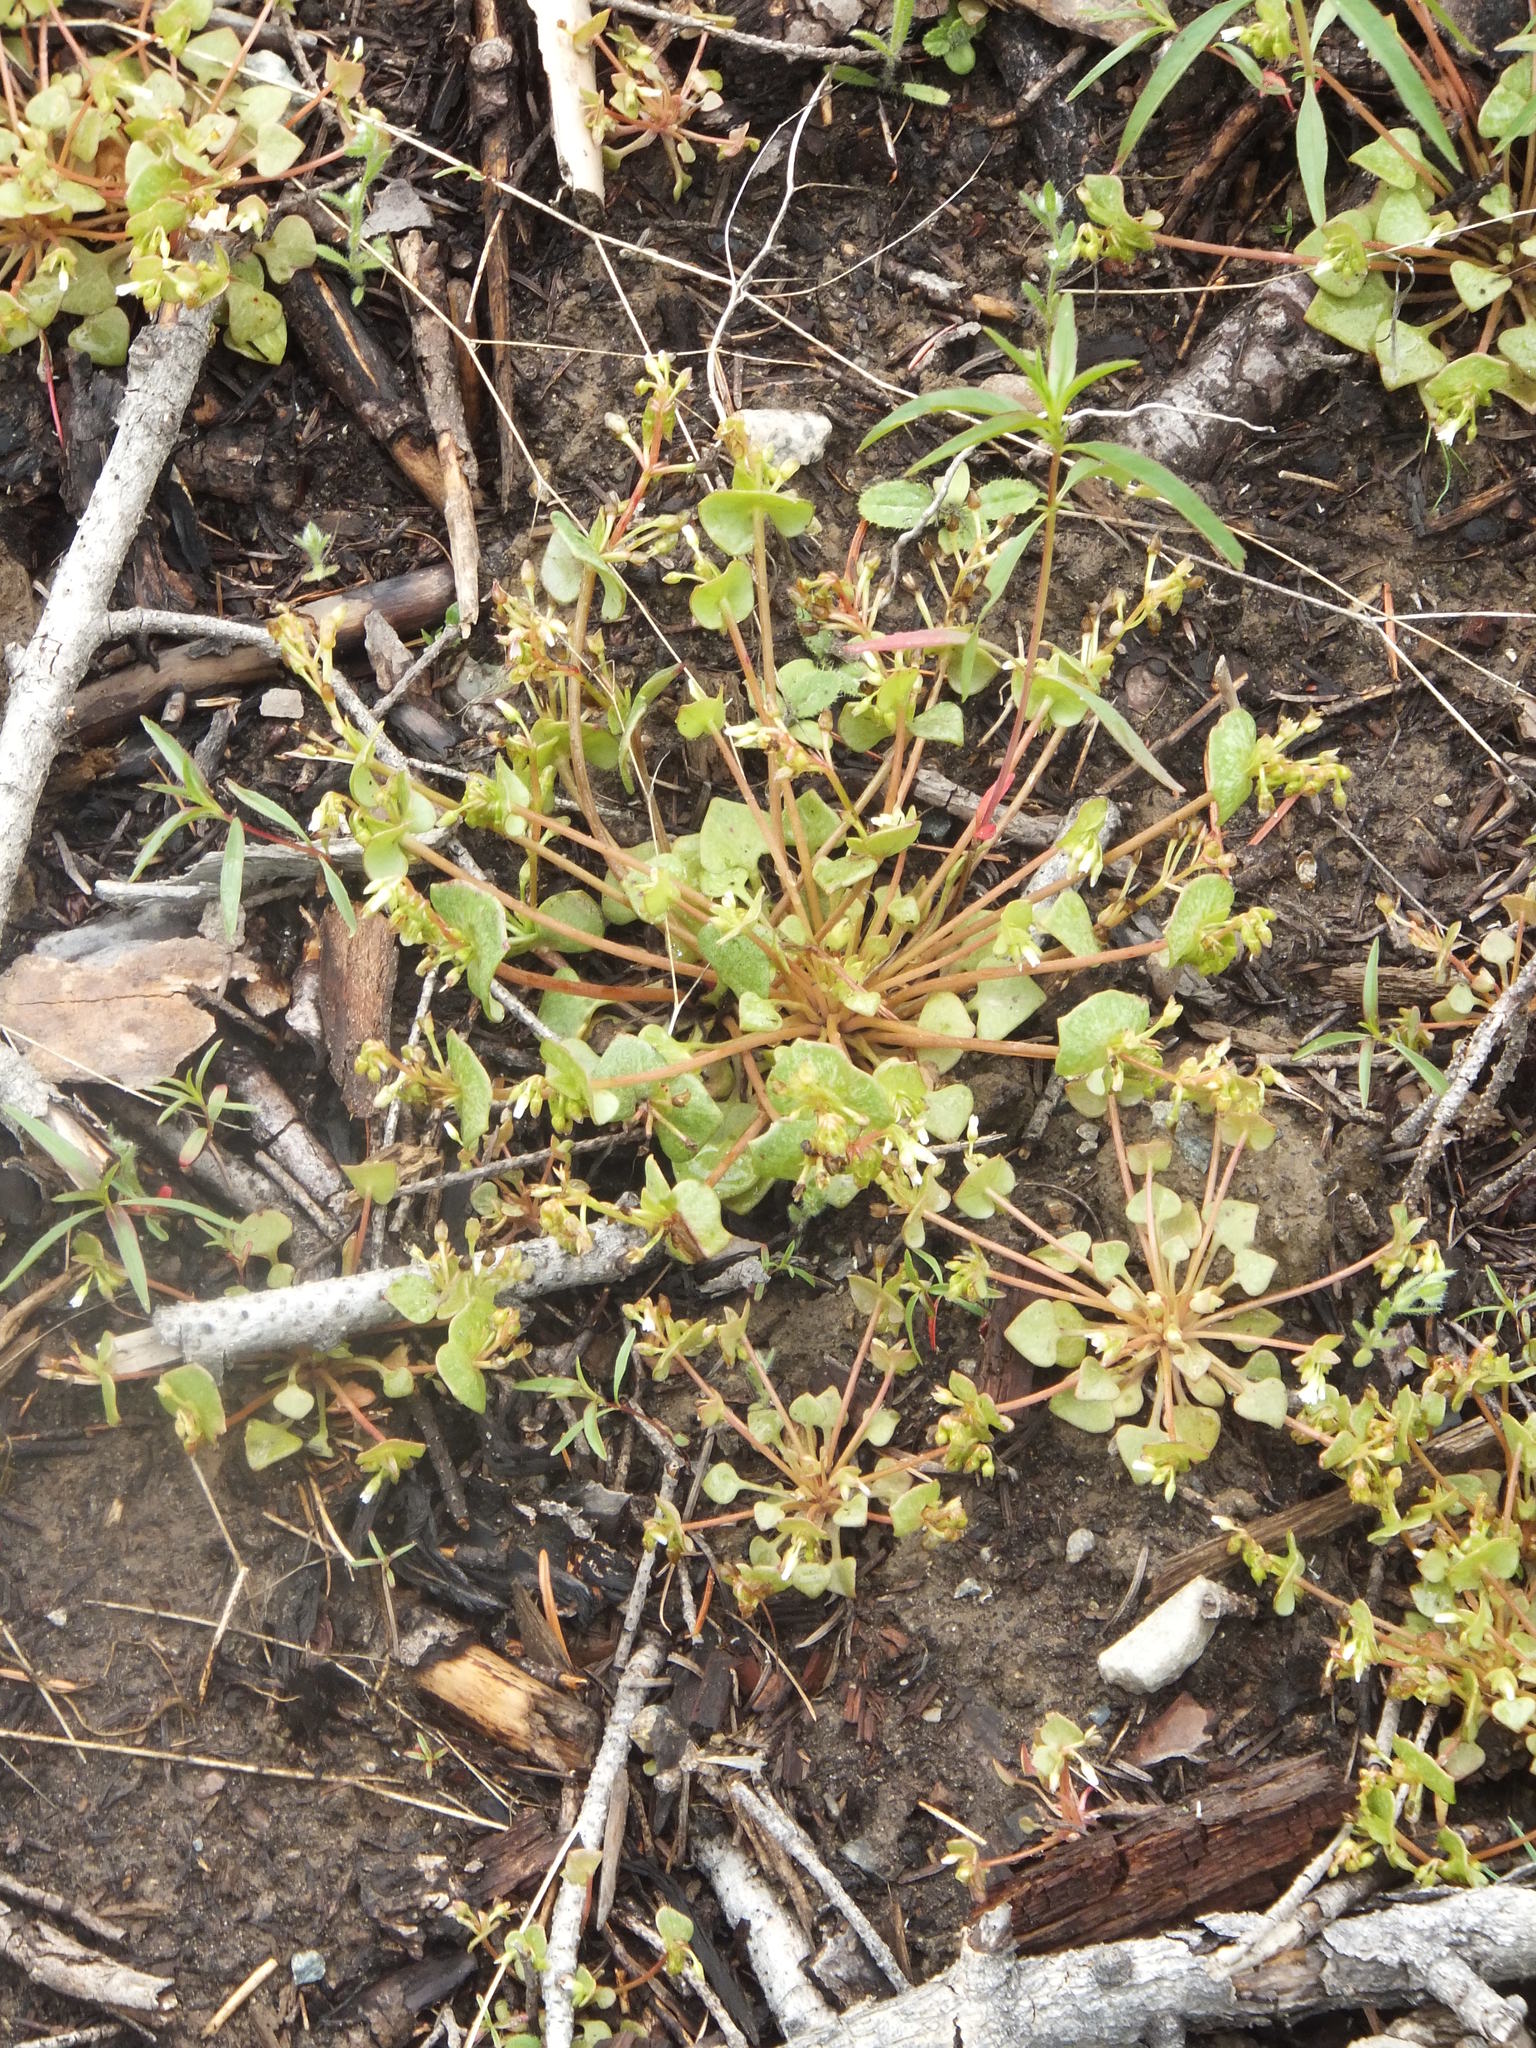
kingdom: Plantae
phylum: Tracheophyta
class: Magnoliopsida
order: Caryophyllales
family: Montiaceae
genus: Claytonia
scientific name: Claytonia rubra
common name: Erubescent miner's-lettuce
